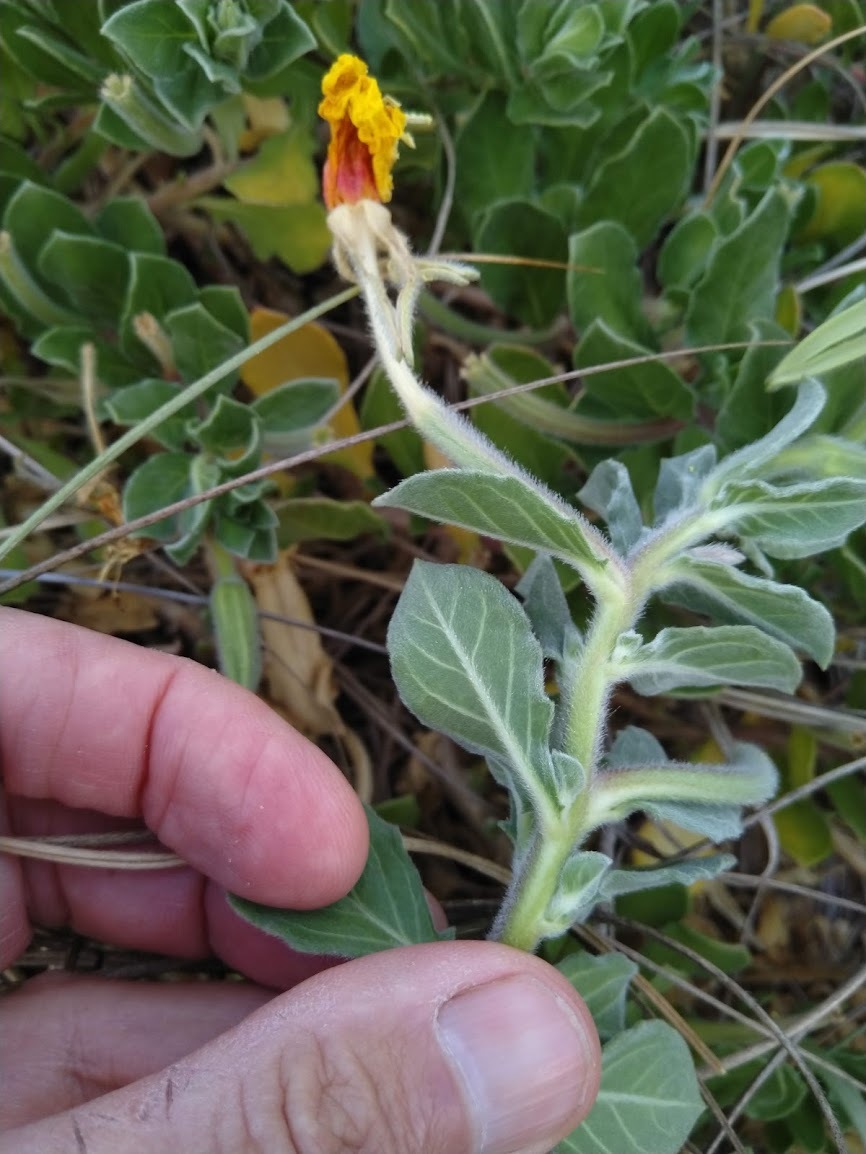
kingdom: Plantae
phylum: Tracheophyta
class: Magnoliopsida
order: Myrtales
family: Onagraceae
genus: Oenothera
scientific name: Oenothera drummondii
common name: Beach evening-primrose
